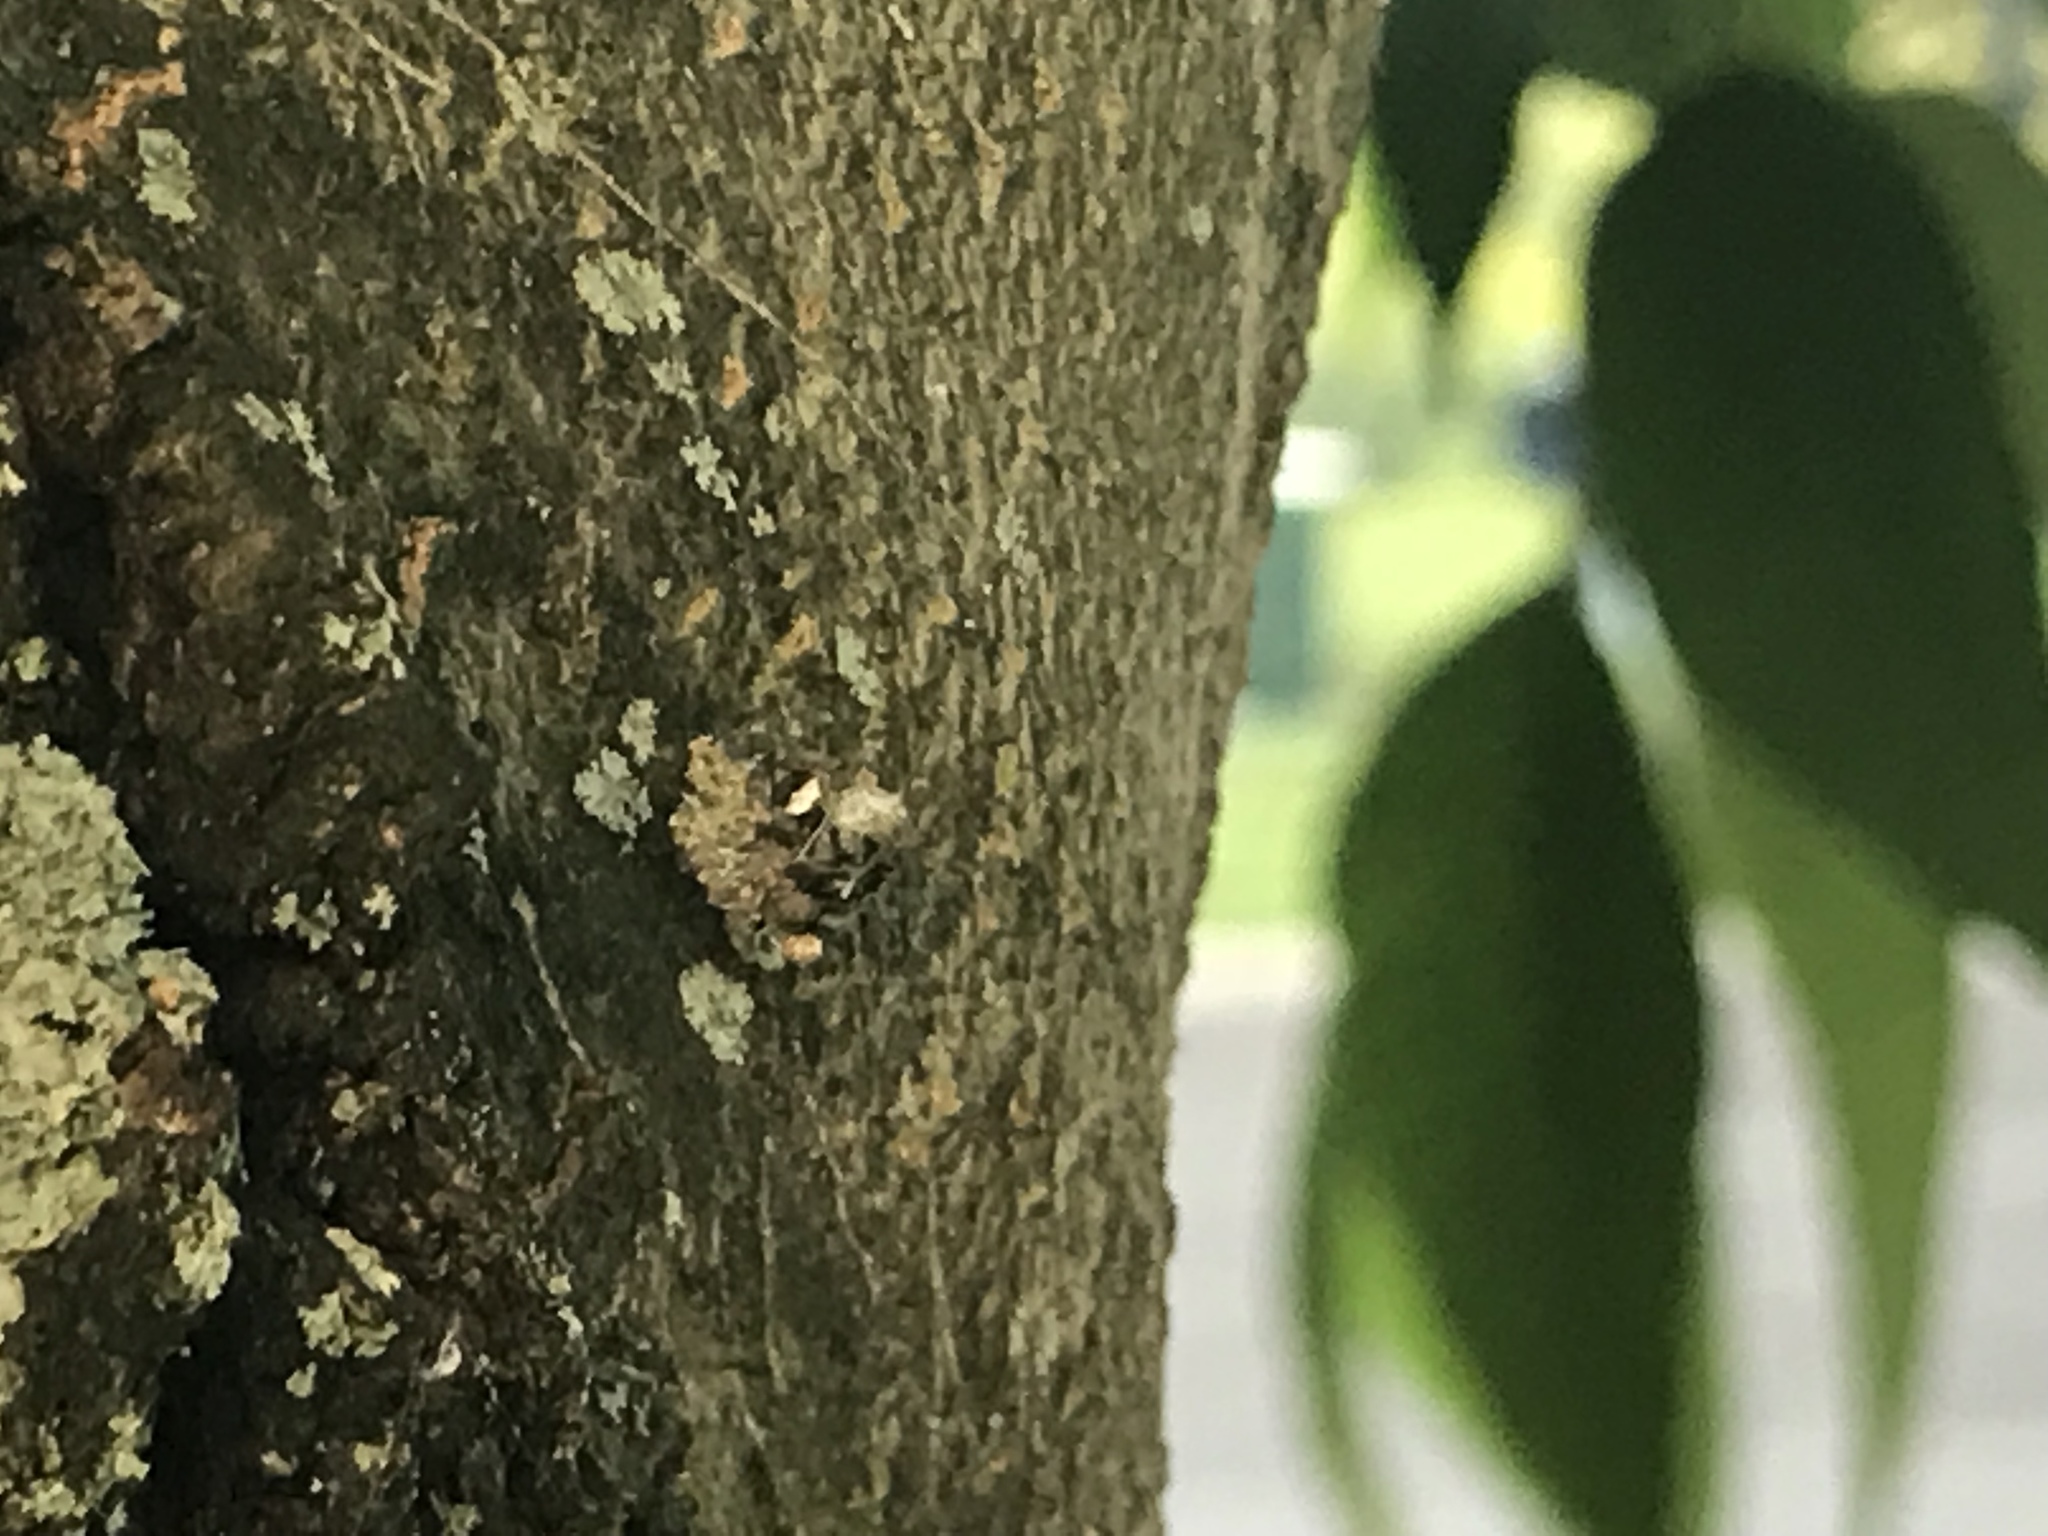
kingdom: Animalia
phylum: Arthropoda
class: Insecta
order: Neuroptera
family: Chrysopidae
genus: Leucochrysa
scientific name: Leucochrysa pavida
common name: Lichen-carrying green lacewing
